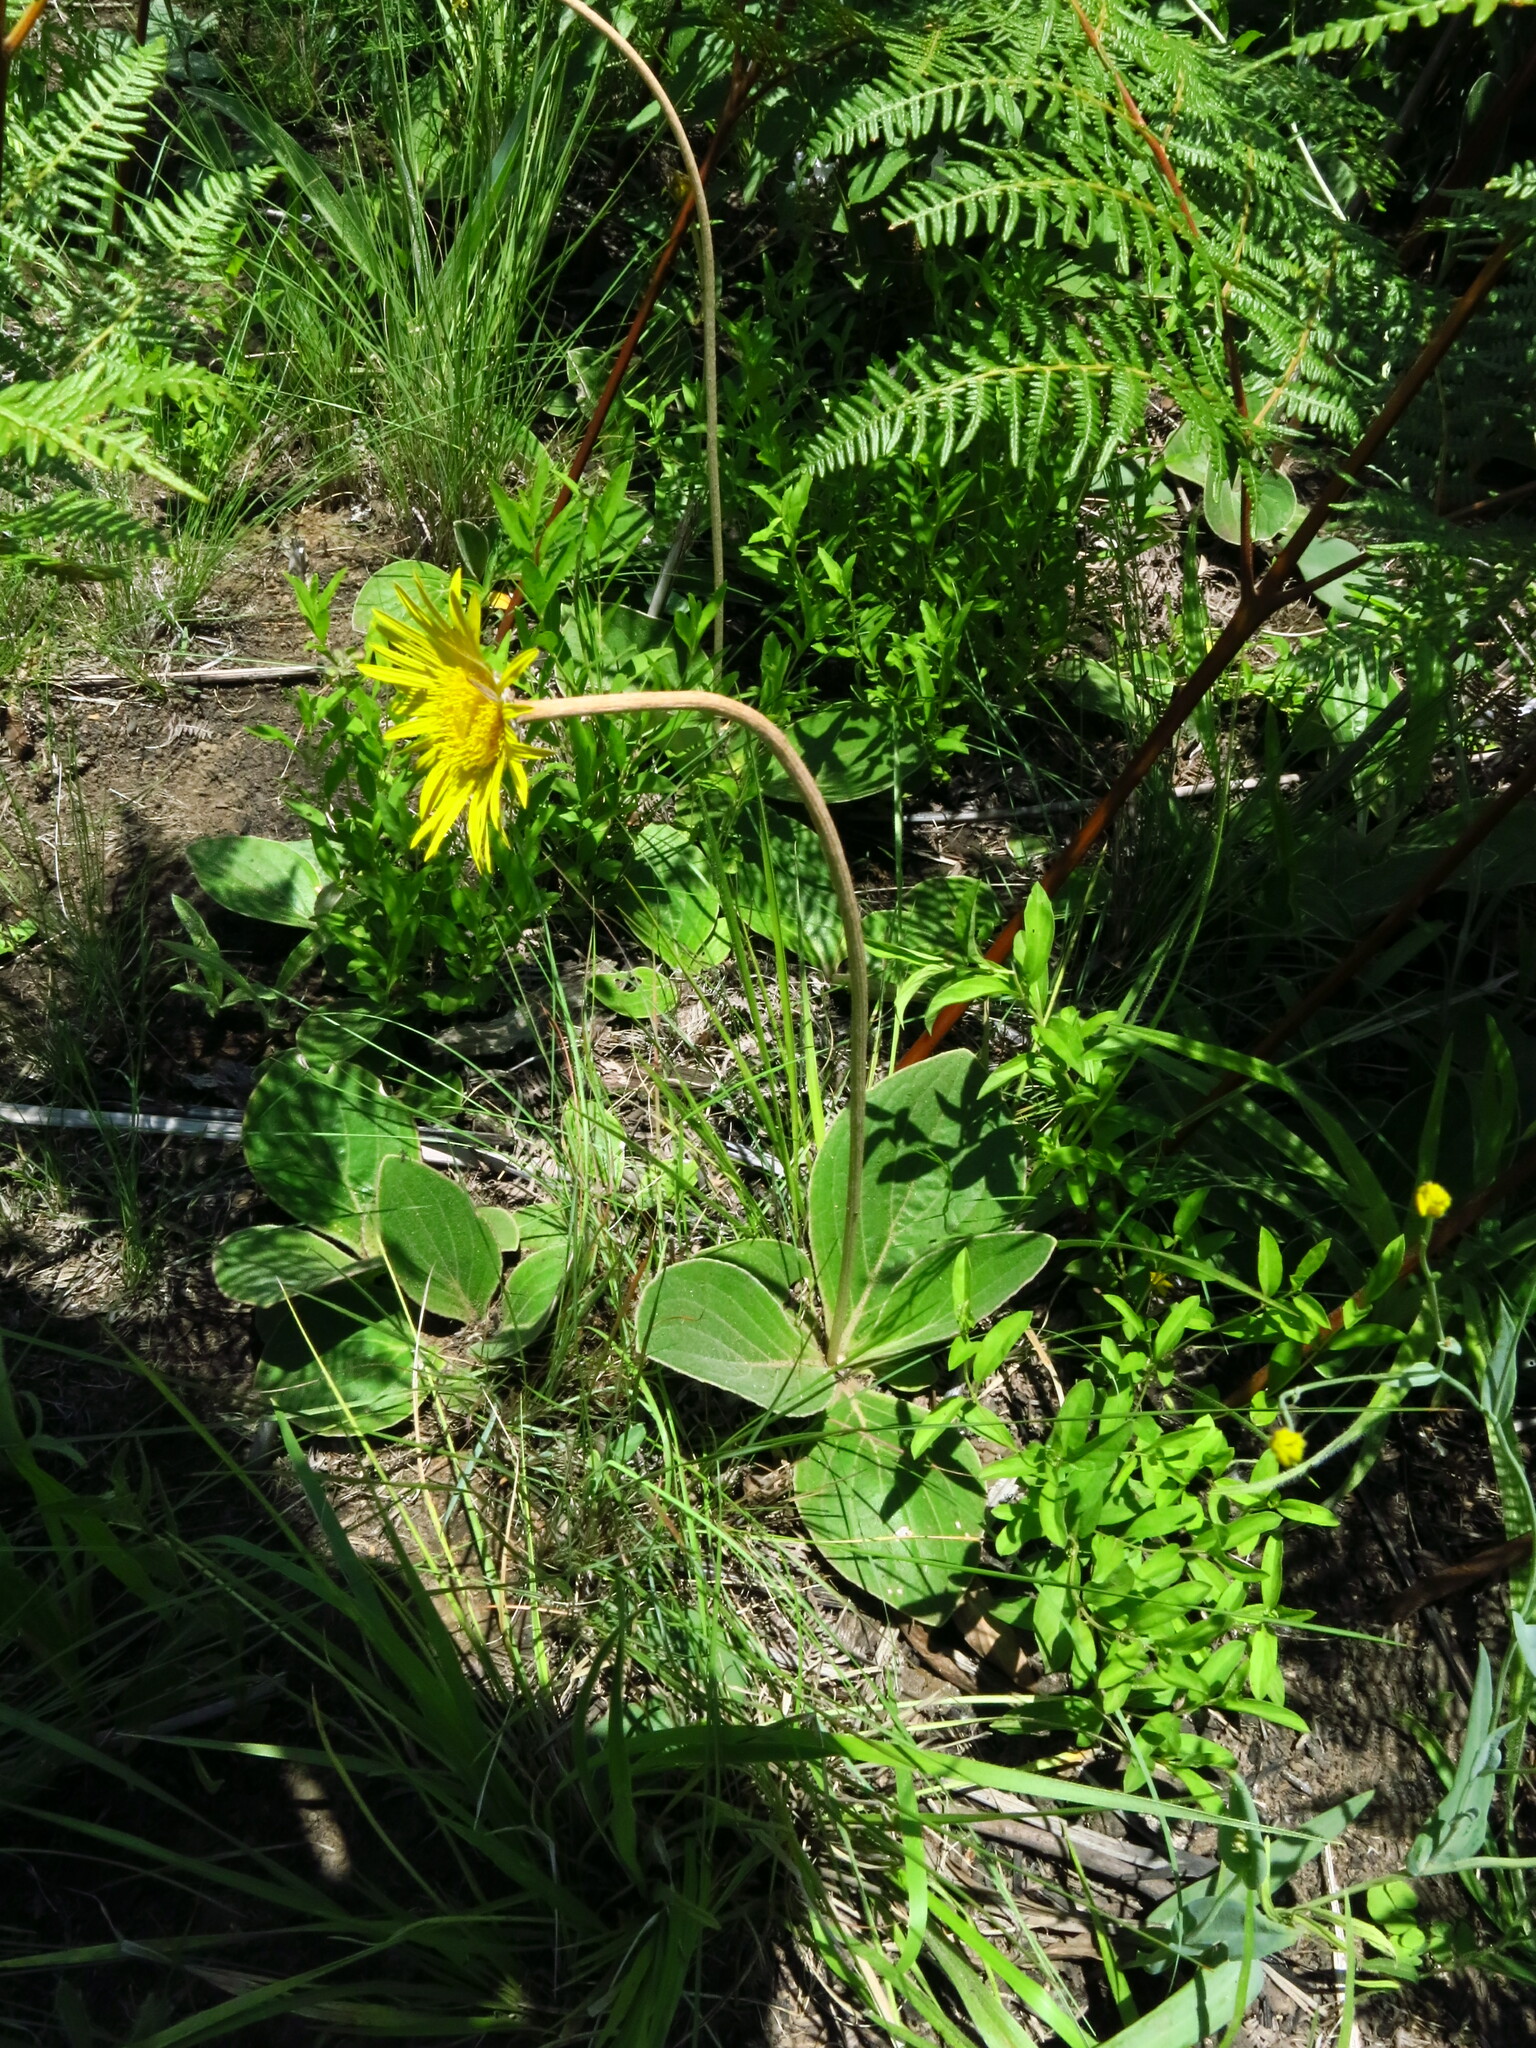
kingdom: Plantae
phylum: Tracheophyta
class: Magnoliopsida
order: Asterales
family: Asteraceae
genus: Haplocarpha
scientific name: Haplocarpha scaposa
